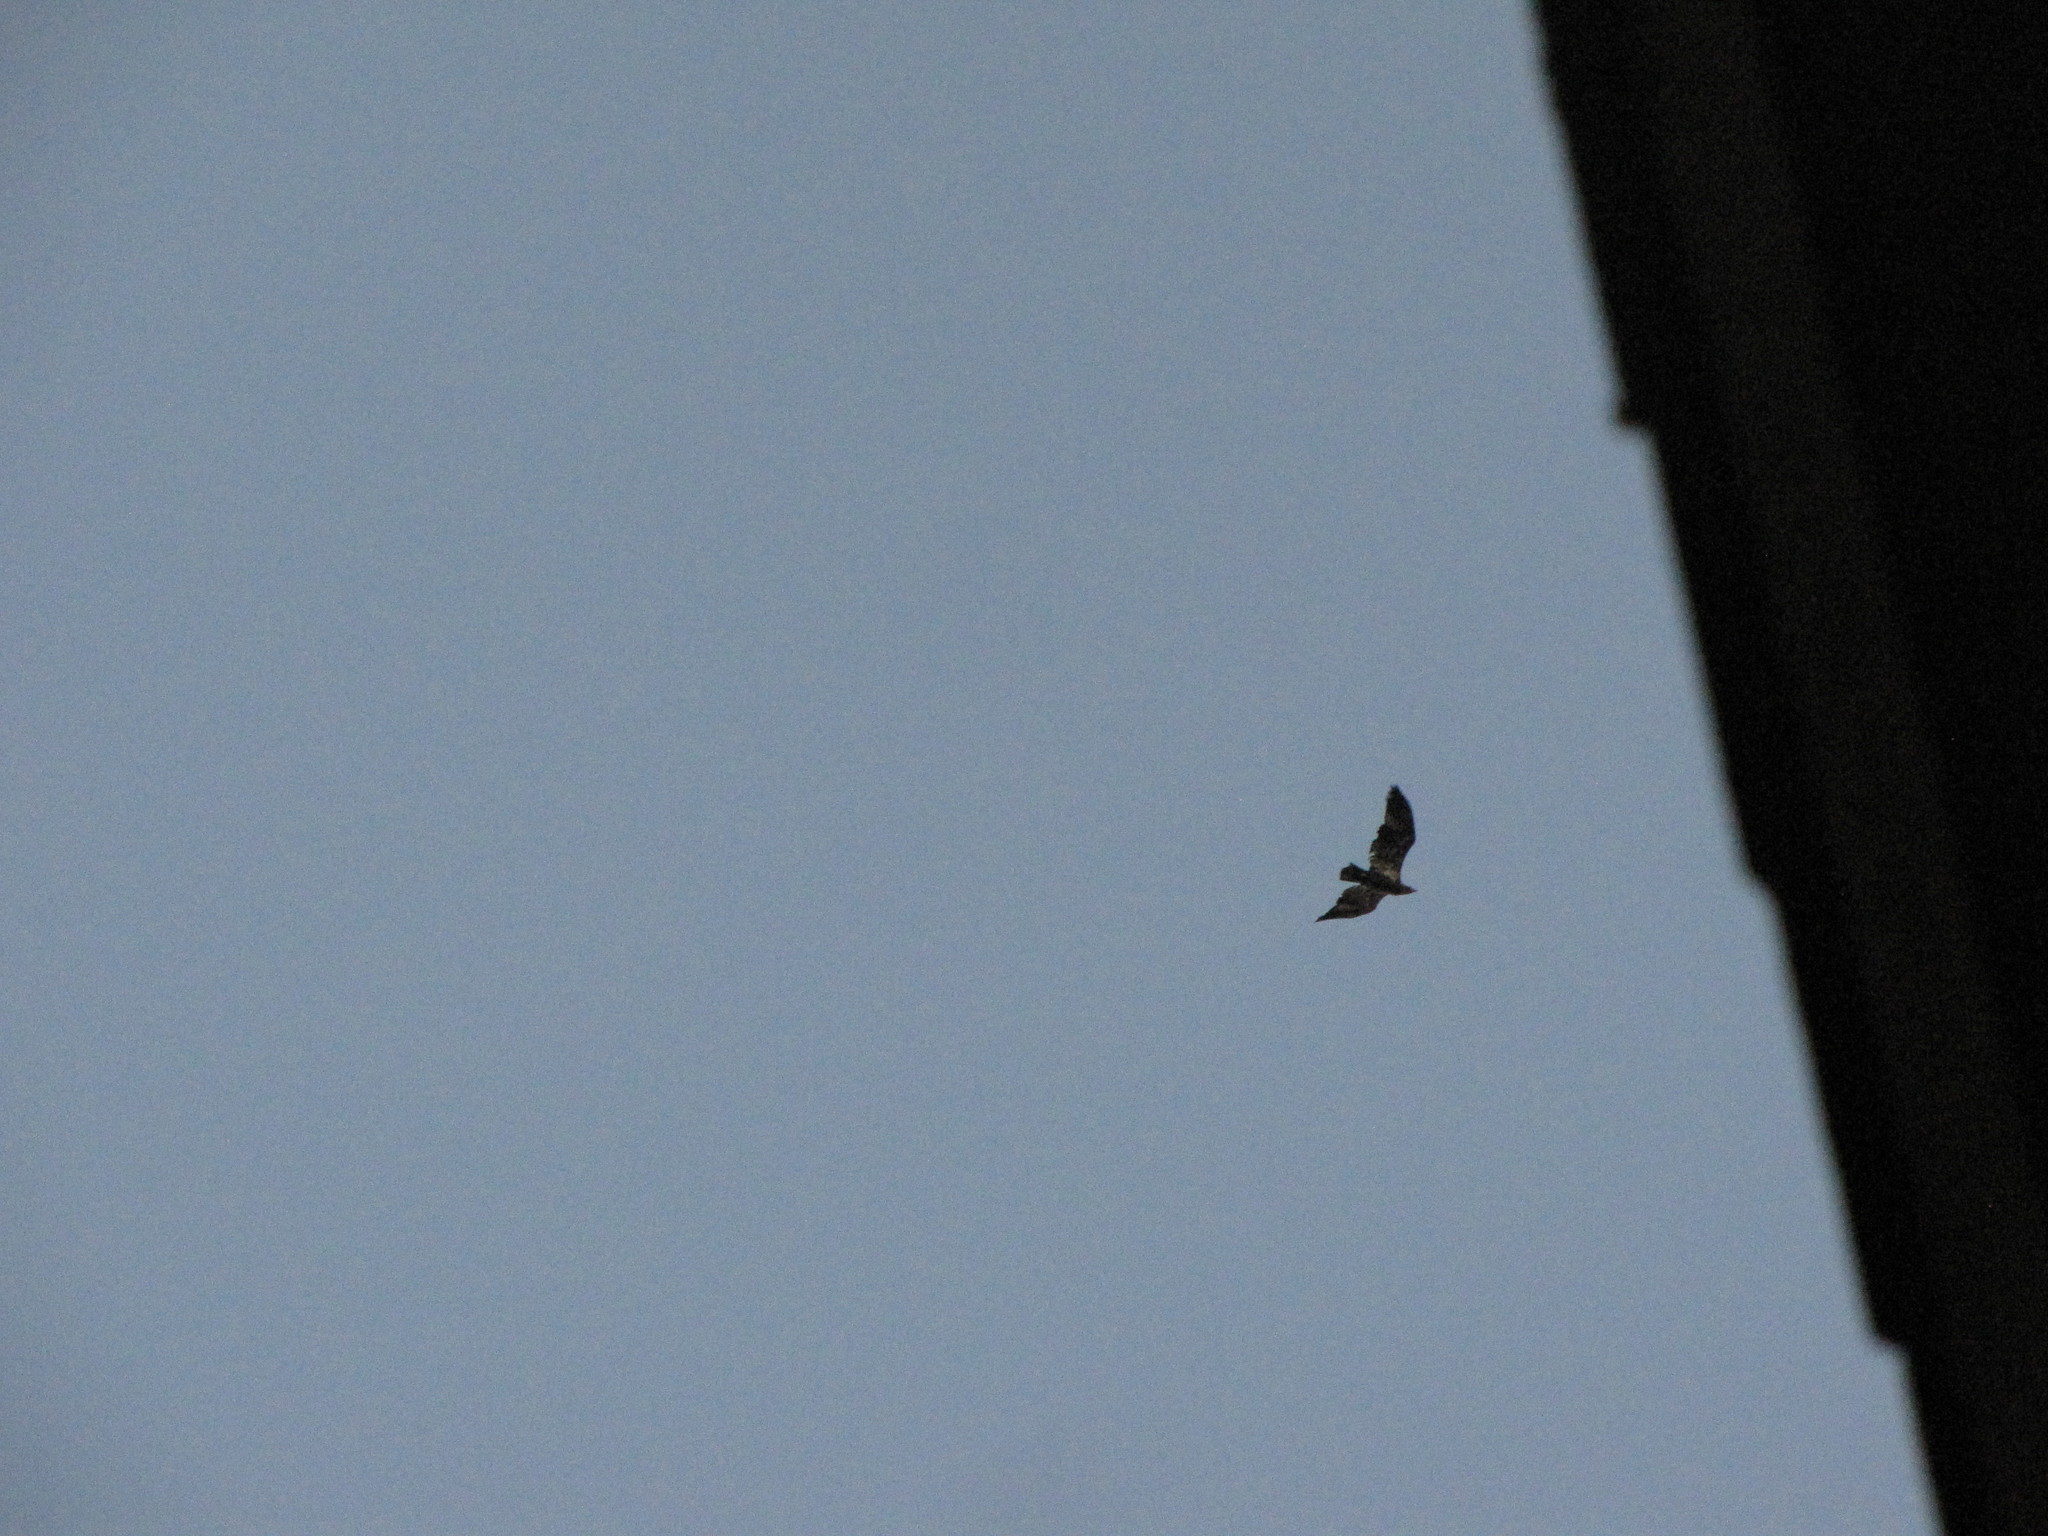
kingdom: Animalia
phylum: Chordata
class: Aves
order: Accipitriformes
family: Accipitridae
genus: Haliaeetus
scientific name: Haliaeetus leucocephalus
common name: Bald eagle
